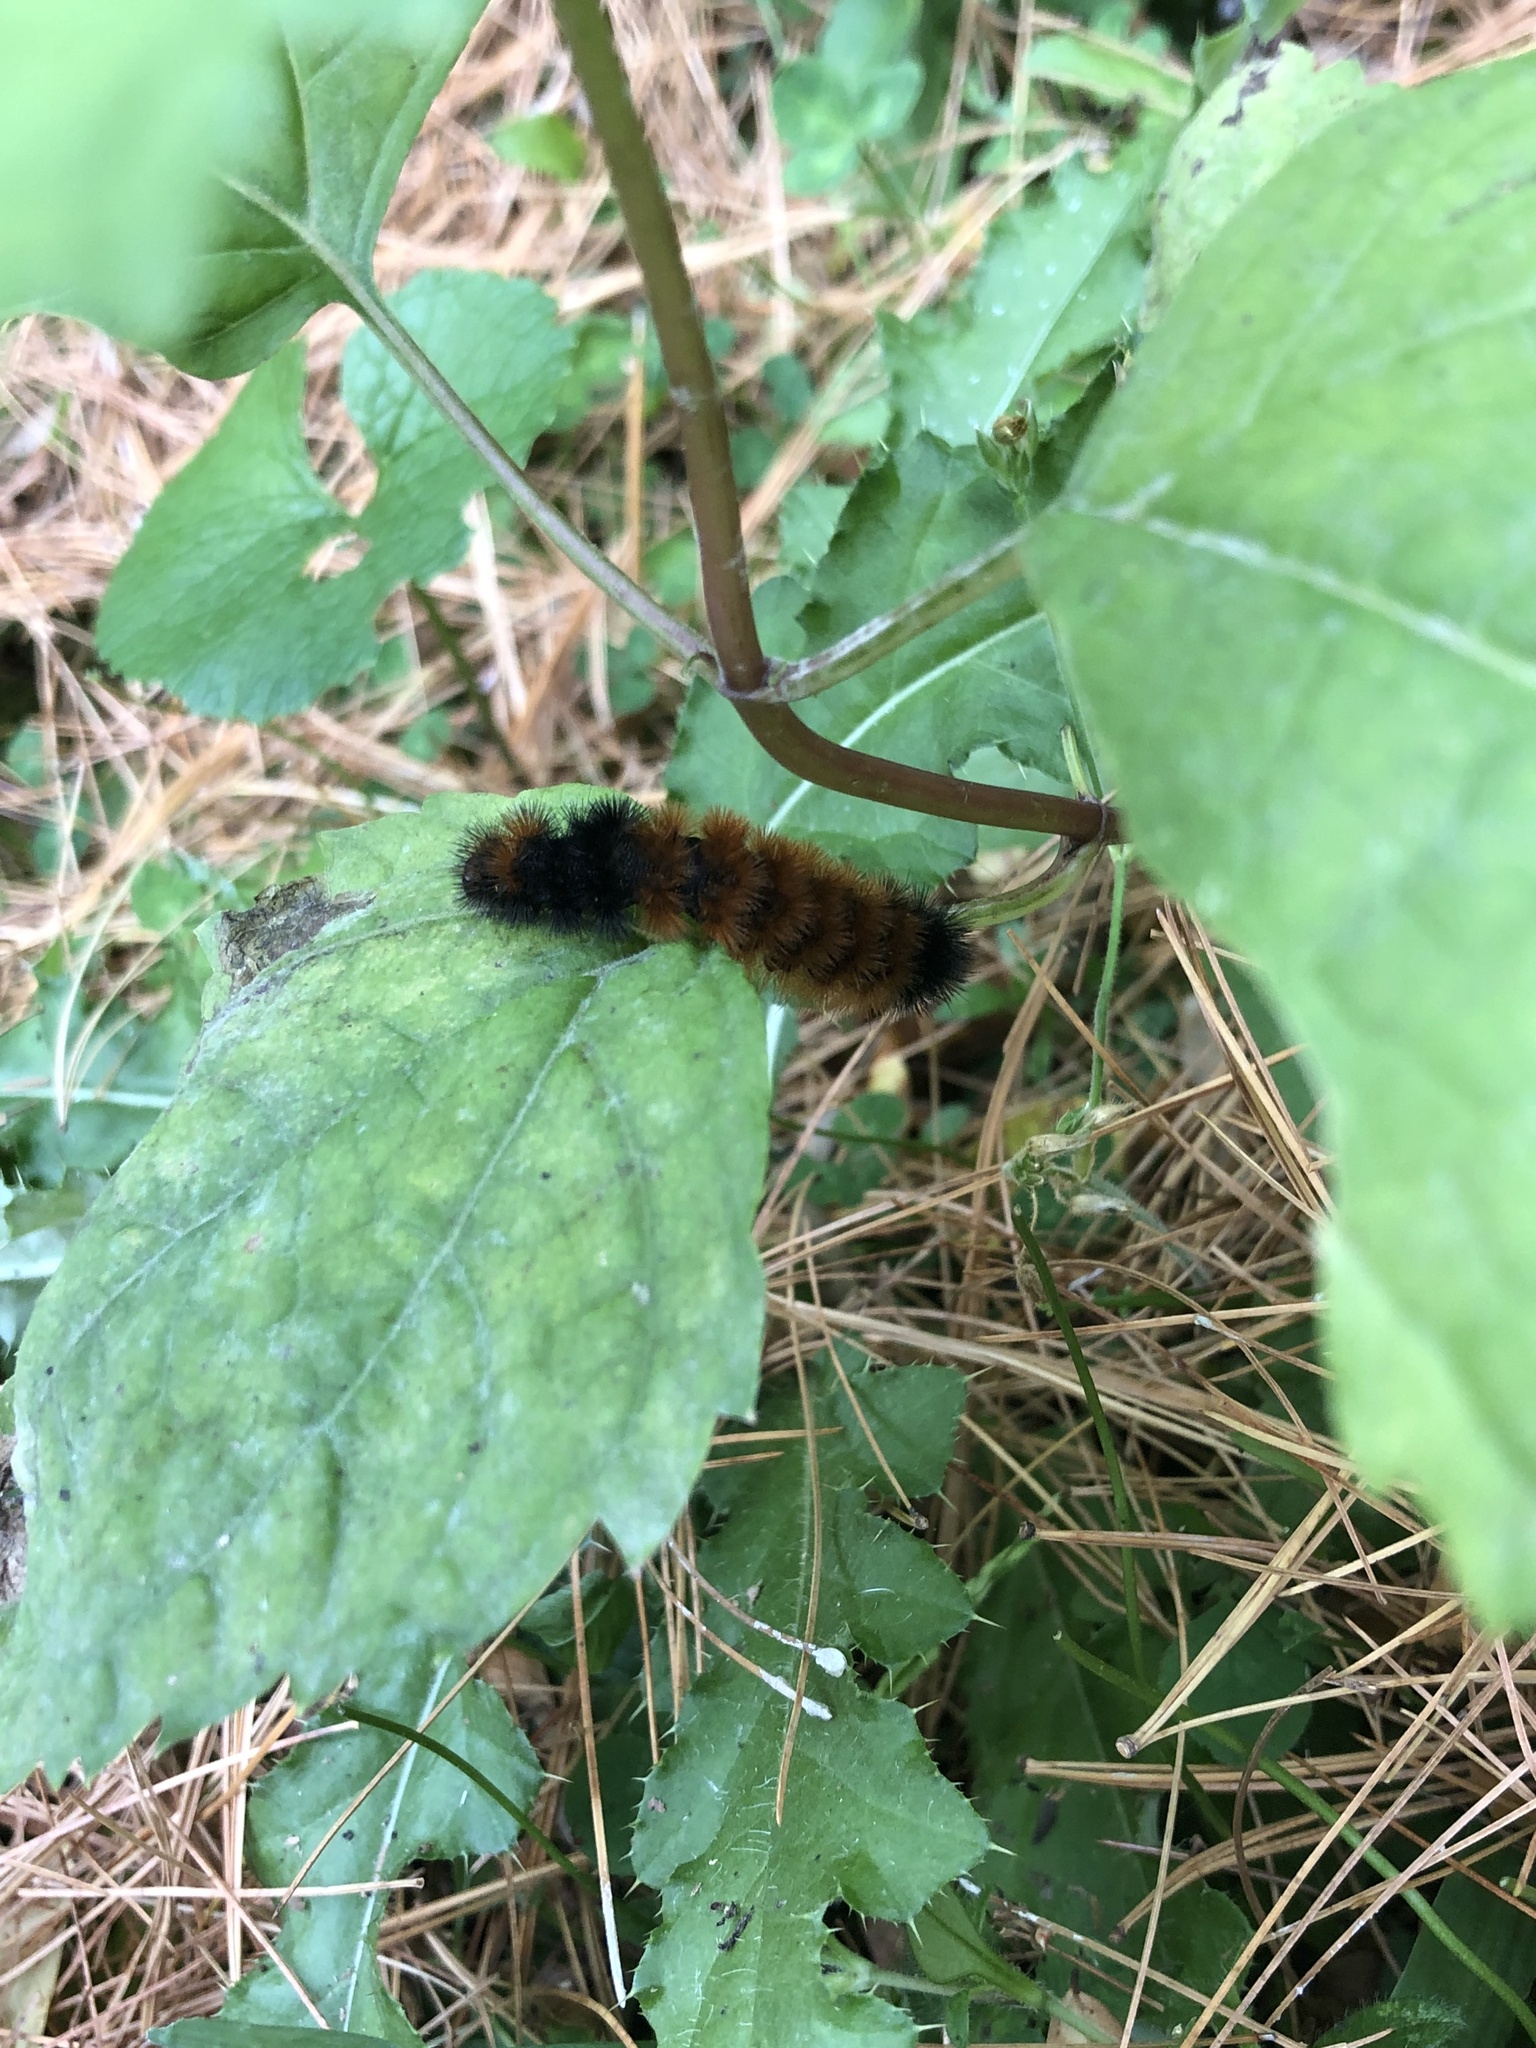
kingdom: Animalia
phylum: Arthropoda
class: Insecta
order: Lepidoptera
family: Erebidae
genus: Pyrrharctia
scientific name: Pyrrharctia isabella
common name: Isabella tiger moth
